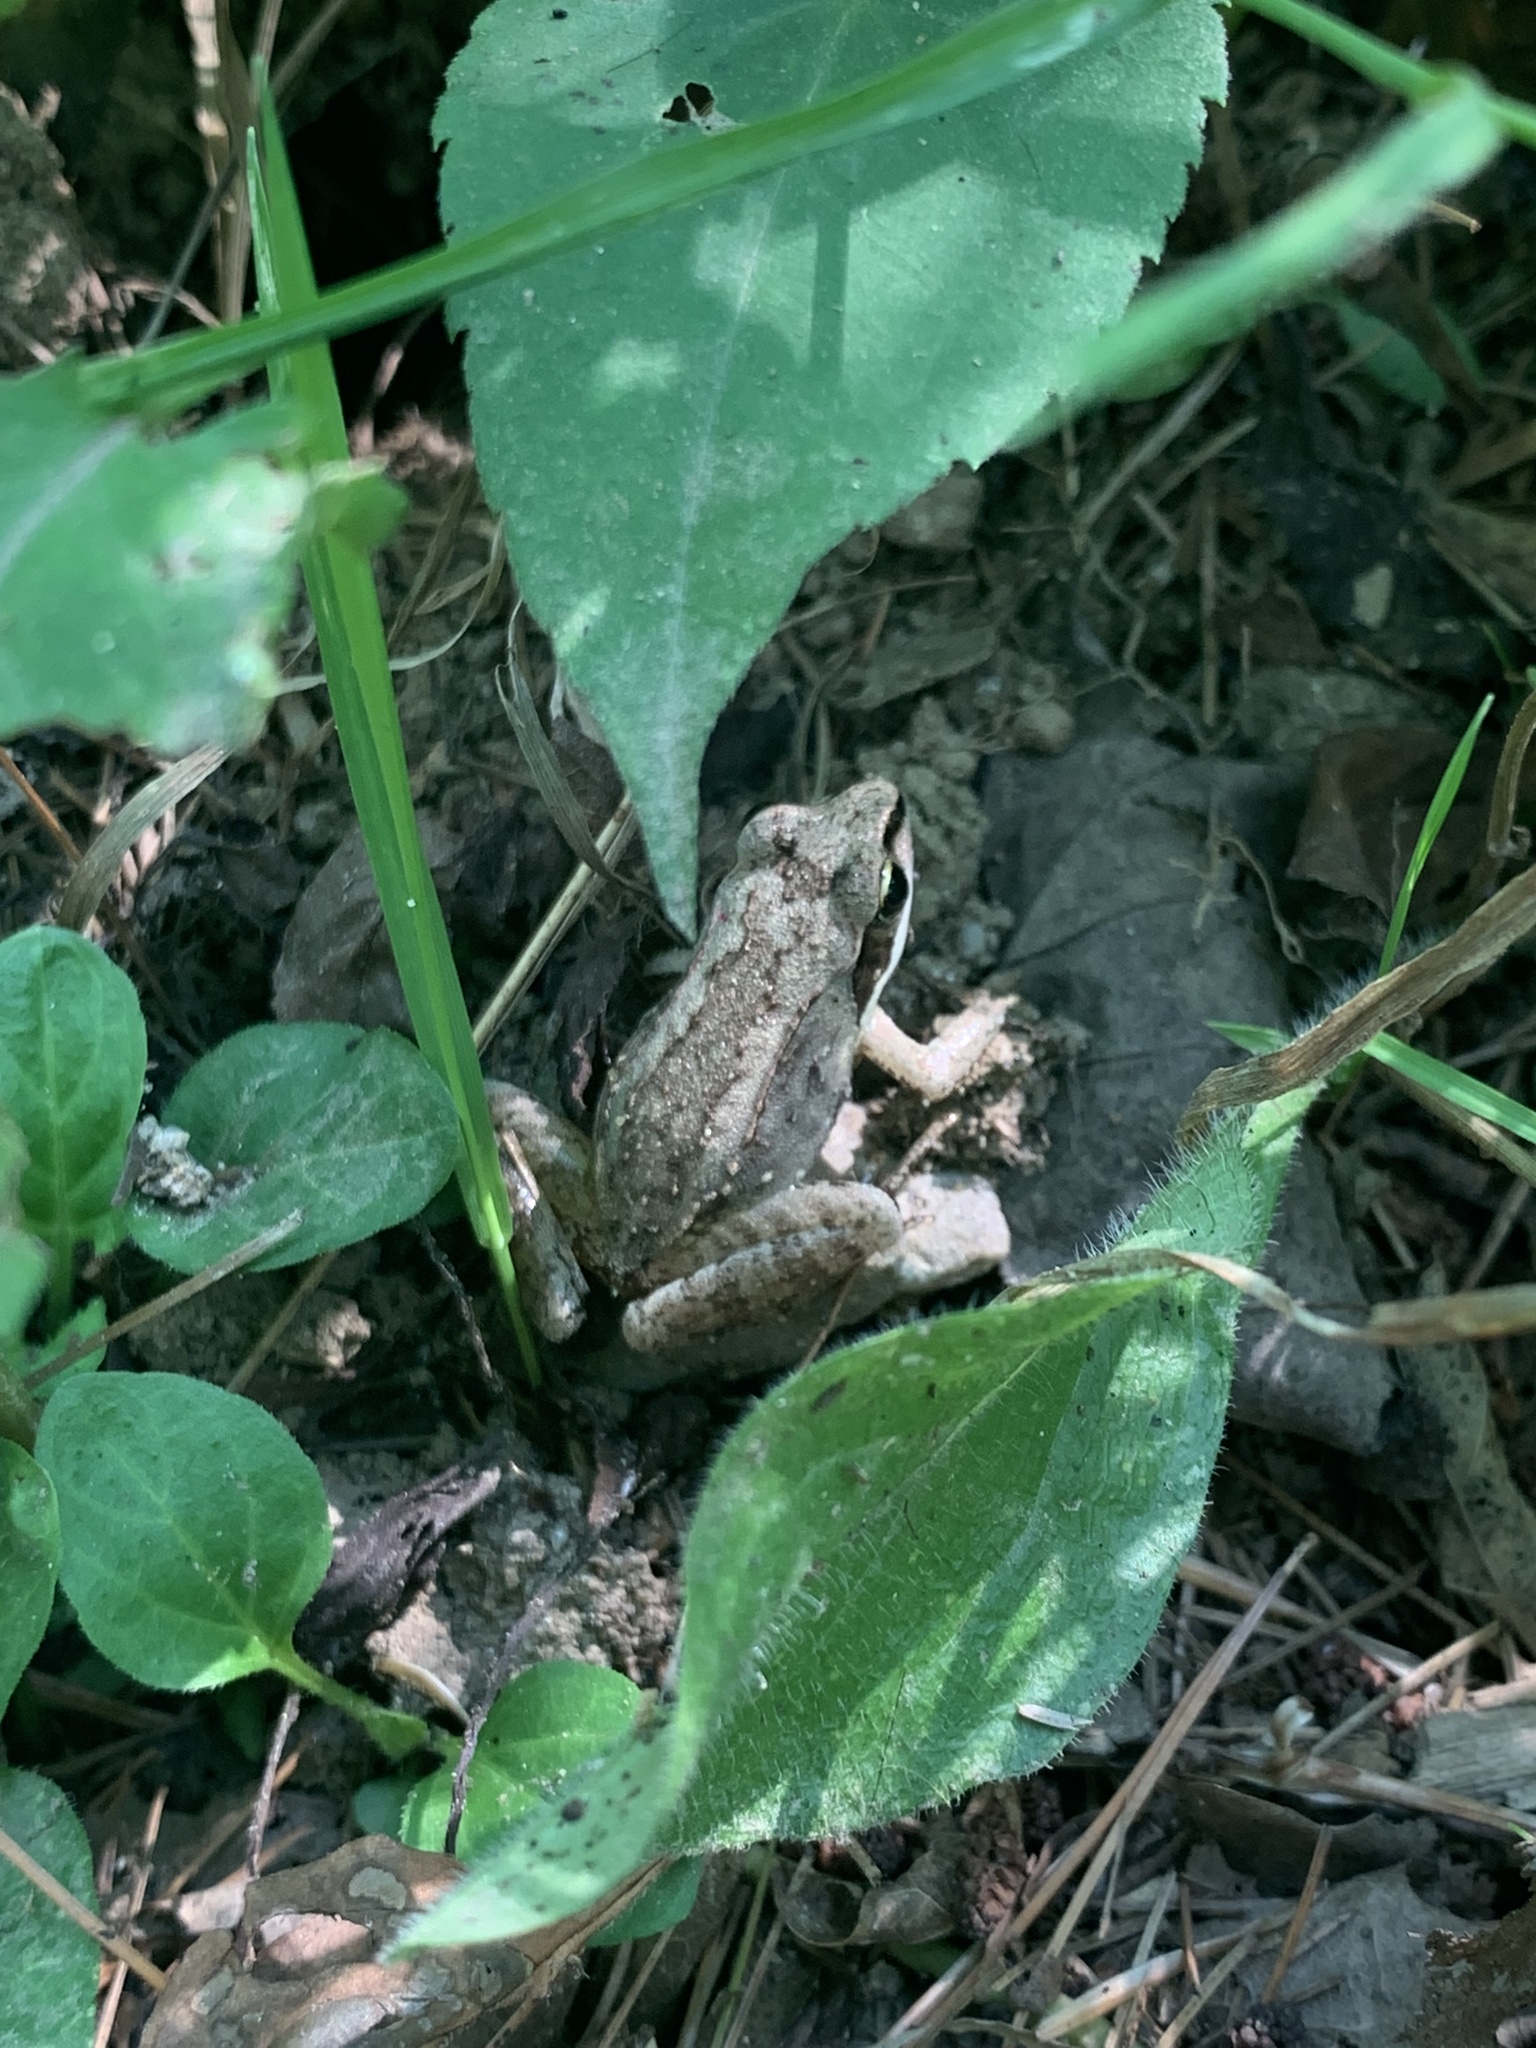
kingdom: Animalia
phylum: Chordata
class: Amphibia
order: Anura
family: Ranidae
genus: Lithobates
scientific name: Lithobates sylvaticus
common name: Wood frog
